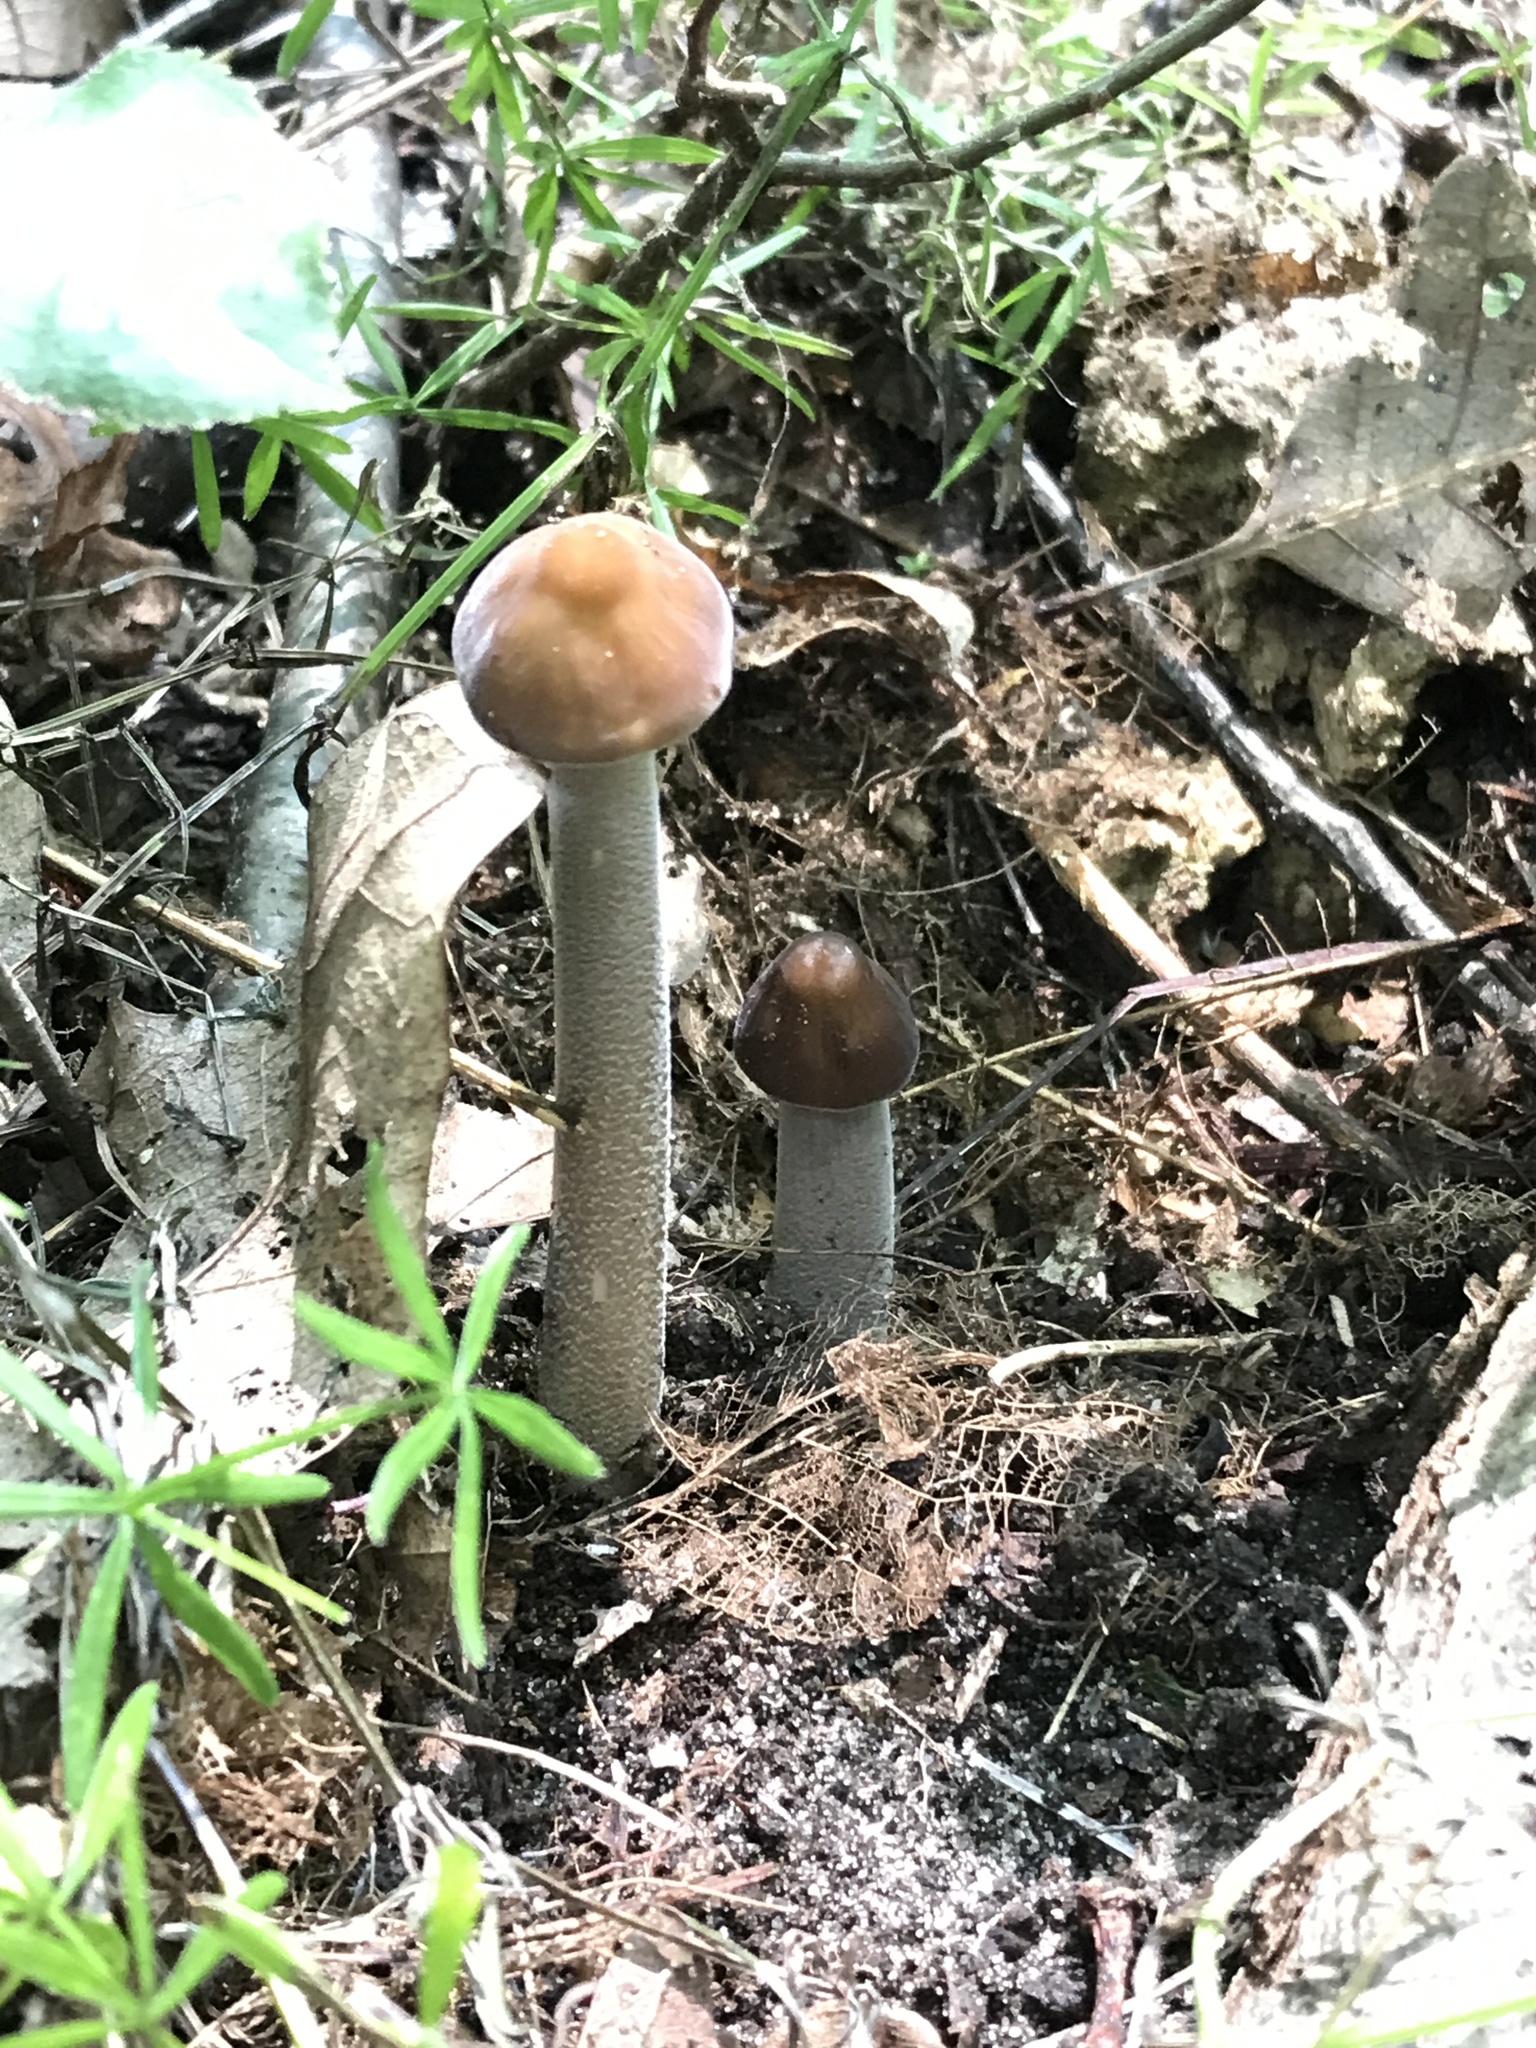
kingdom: Fungi
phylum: Basidiomycota
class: Agaricomycetes
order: Agaricales
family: Physalacriaceae
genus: Hymenopellis
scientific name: Hymenopellis furfuracea
